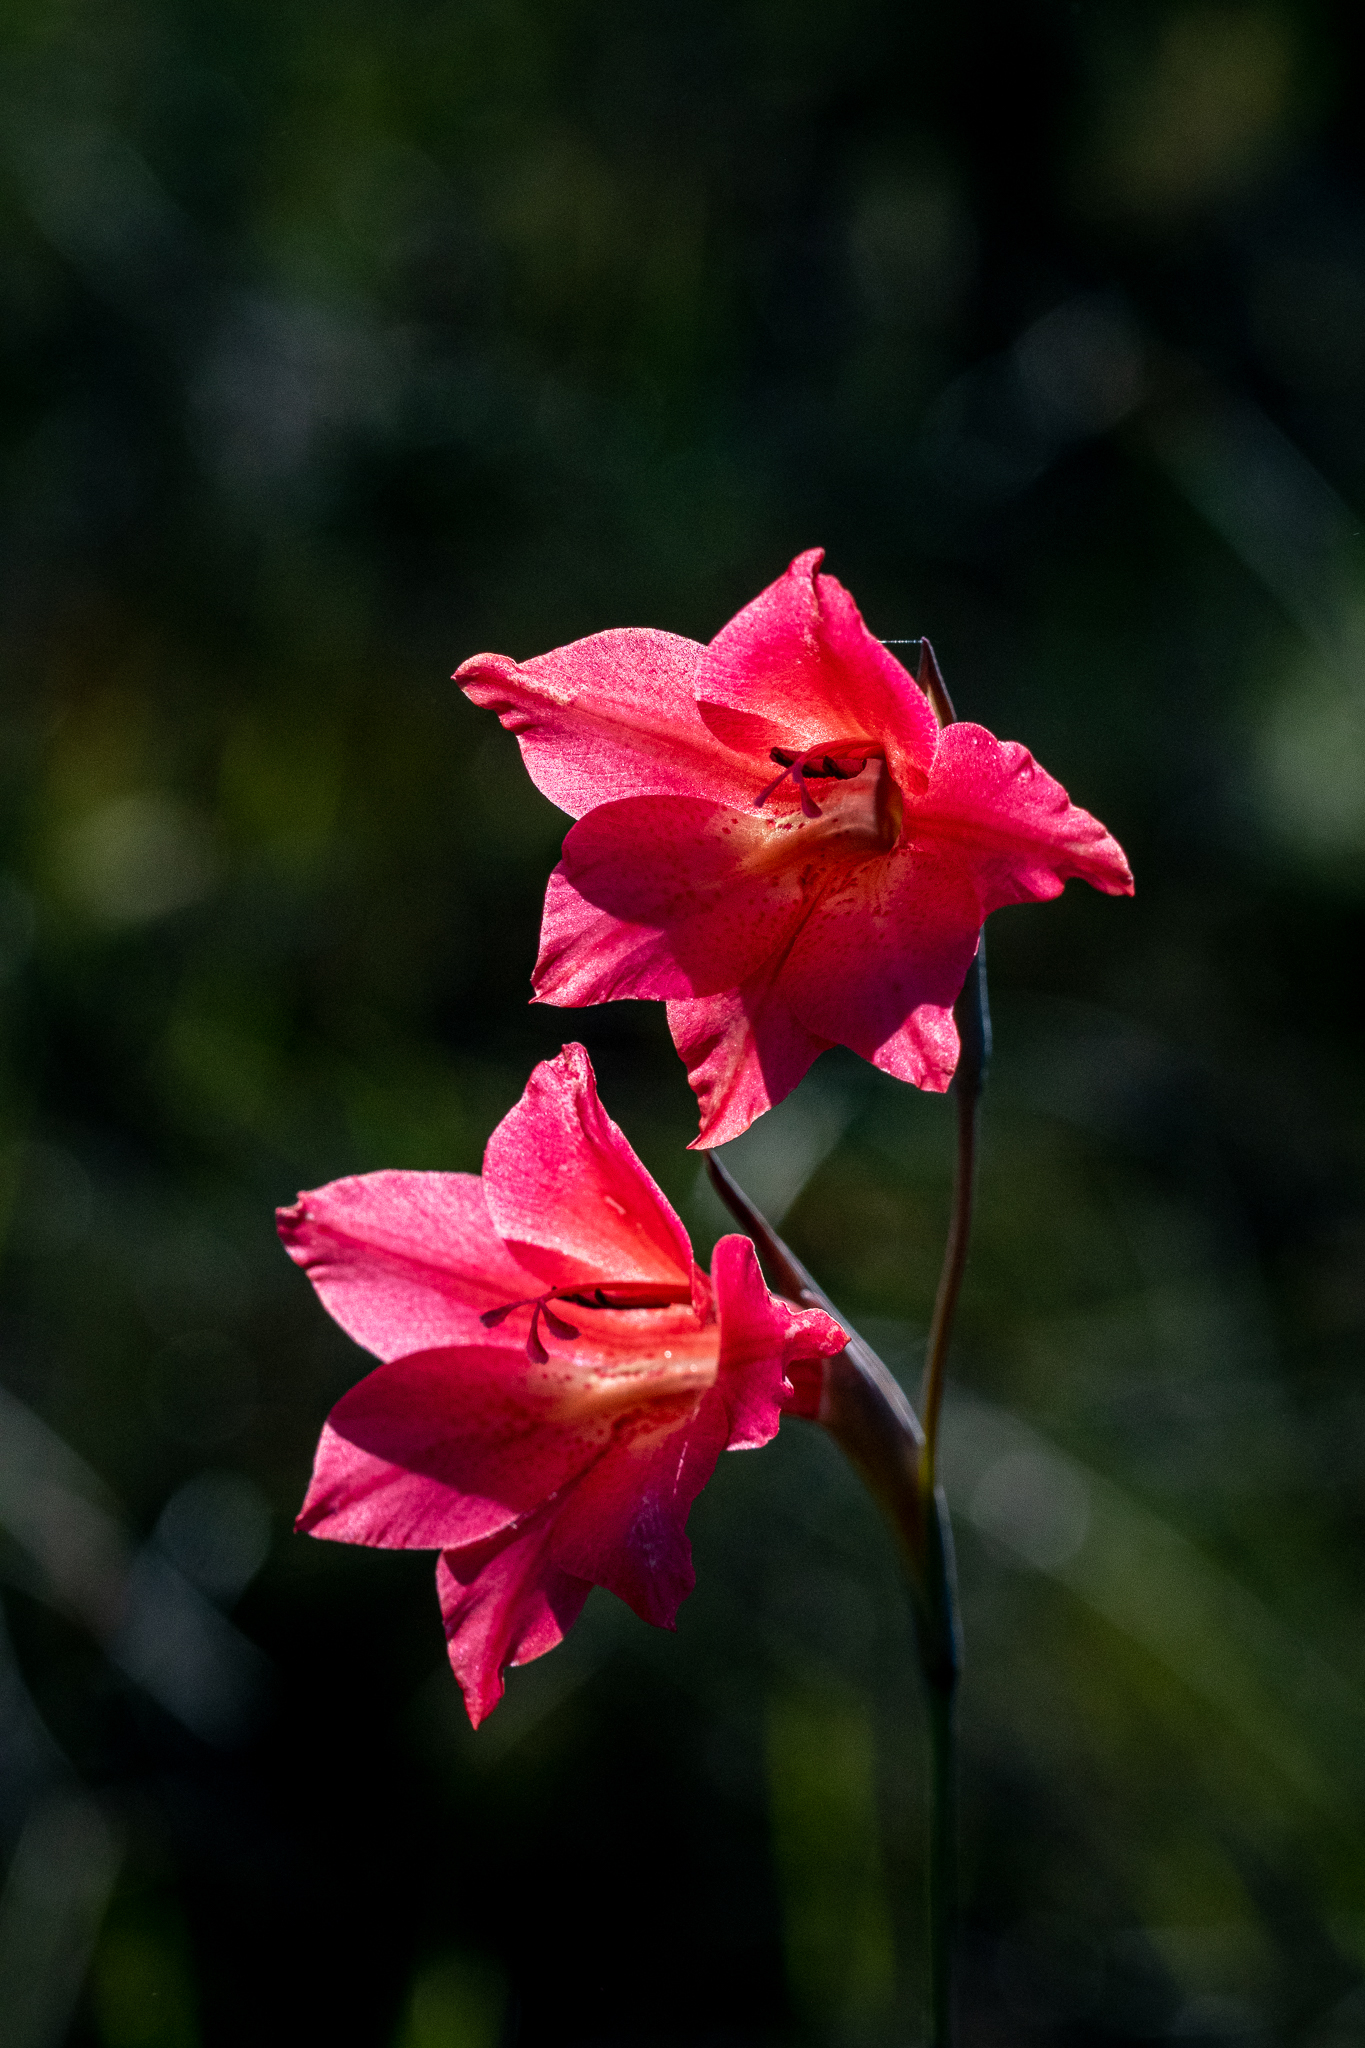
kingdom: Plantae
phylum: Tracheophyta
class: Liliopsida
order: Asparagales
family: Iridaceae
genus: Gladiolus
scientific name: Gladiolus meridionalis
